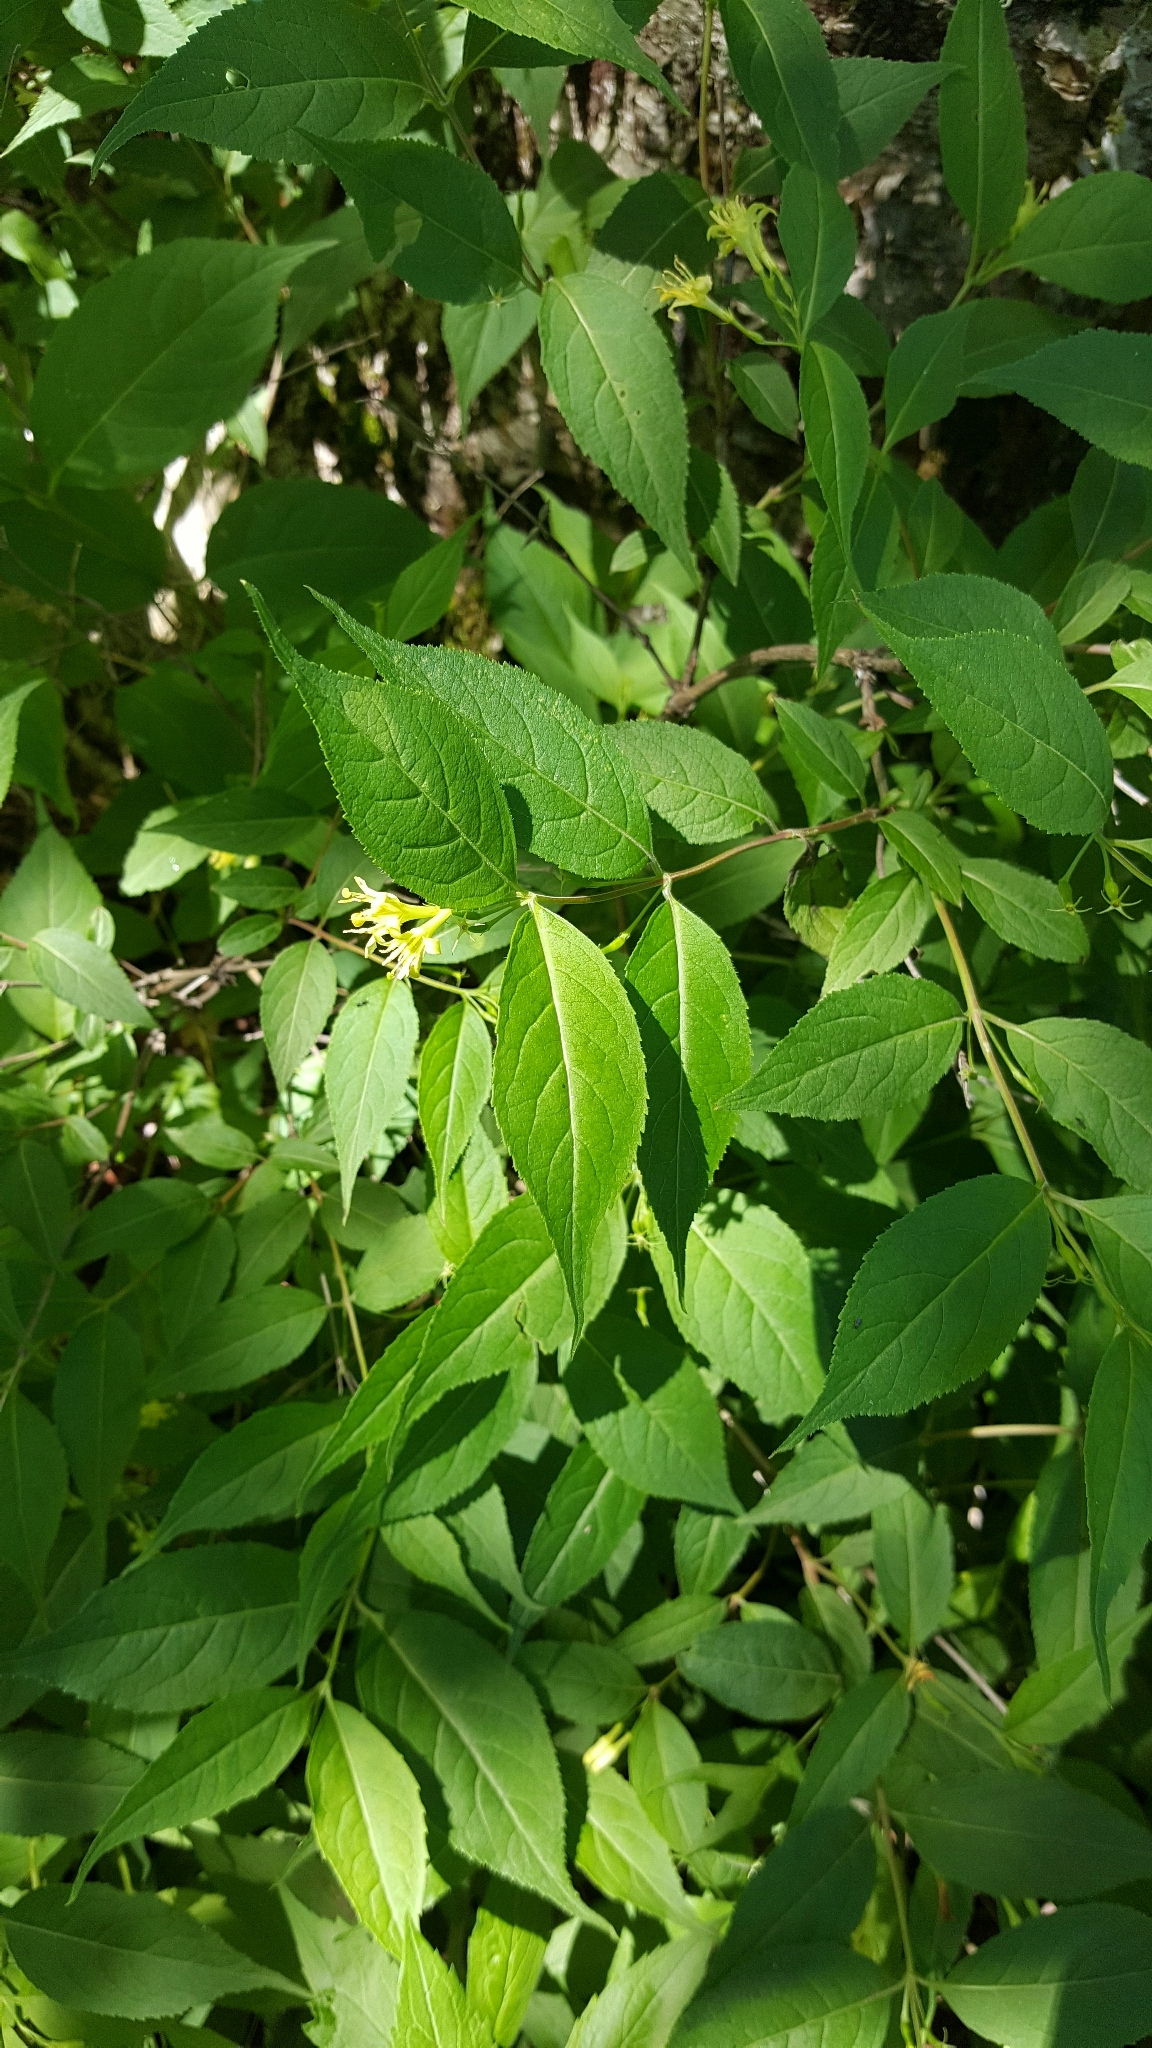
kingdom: Plantae
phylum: Tracheophyta
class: Magnoliopsida
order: Dipsacales
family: Caprifoliaceae
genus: Diervilla
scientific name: Diervilla lonicera
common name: Bush-honeysuckle
